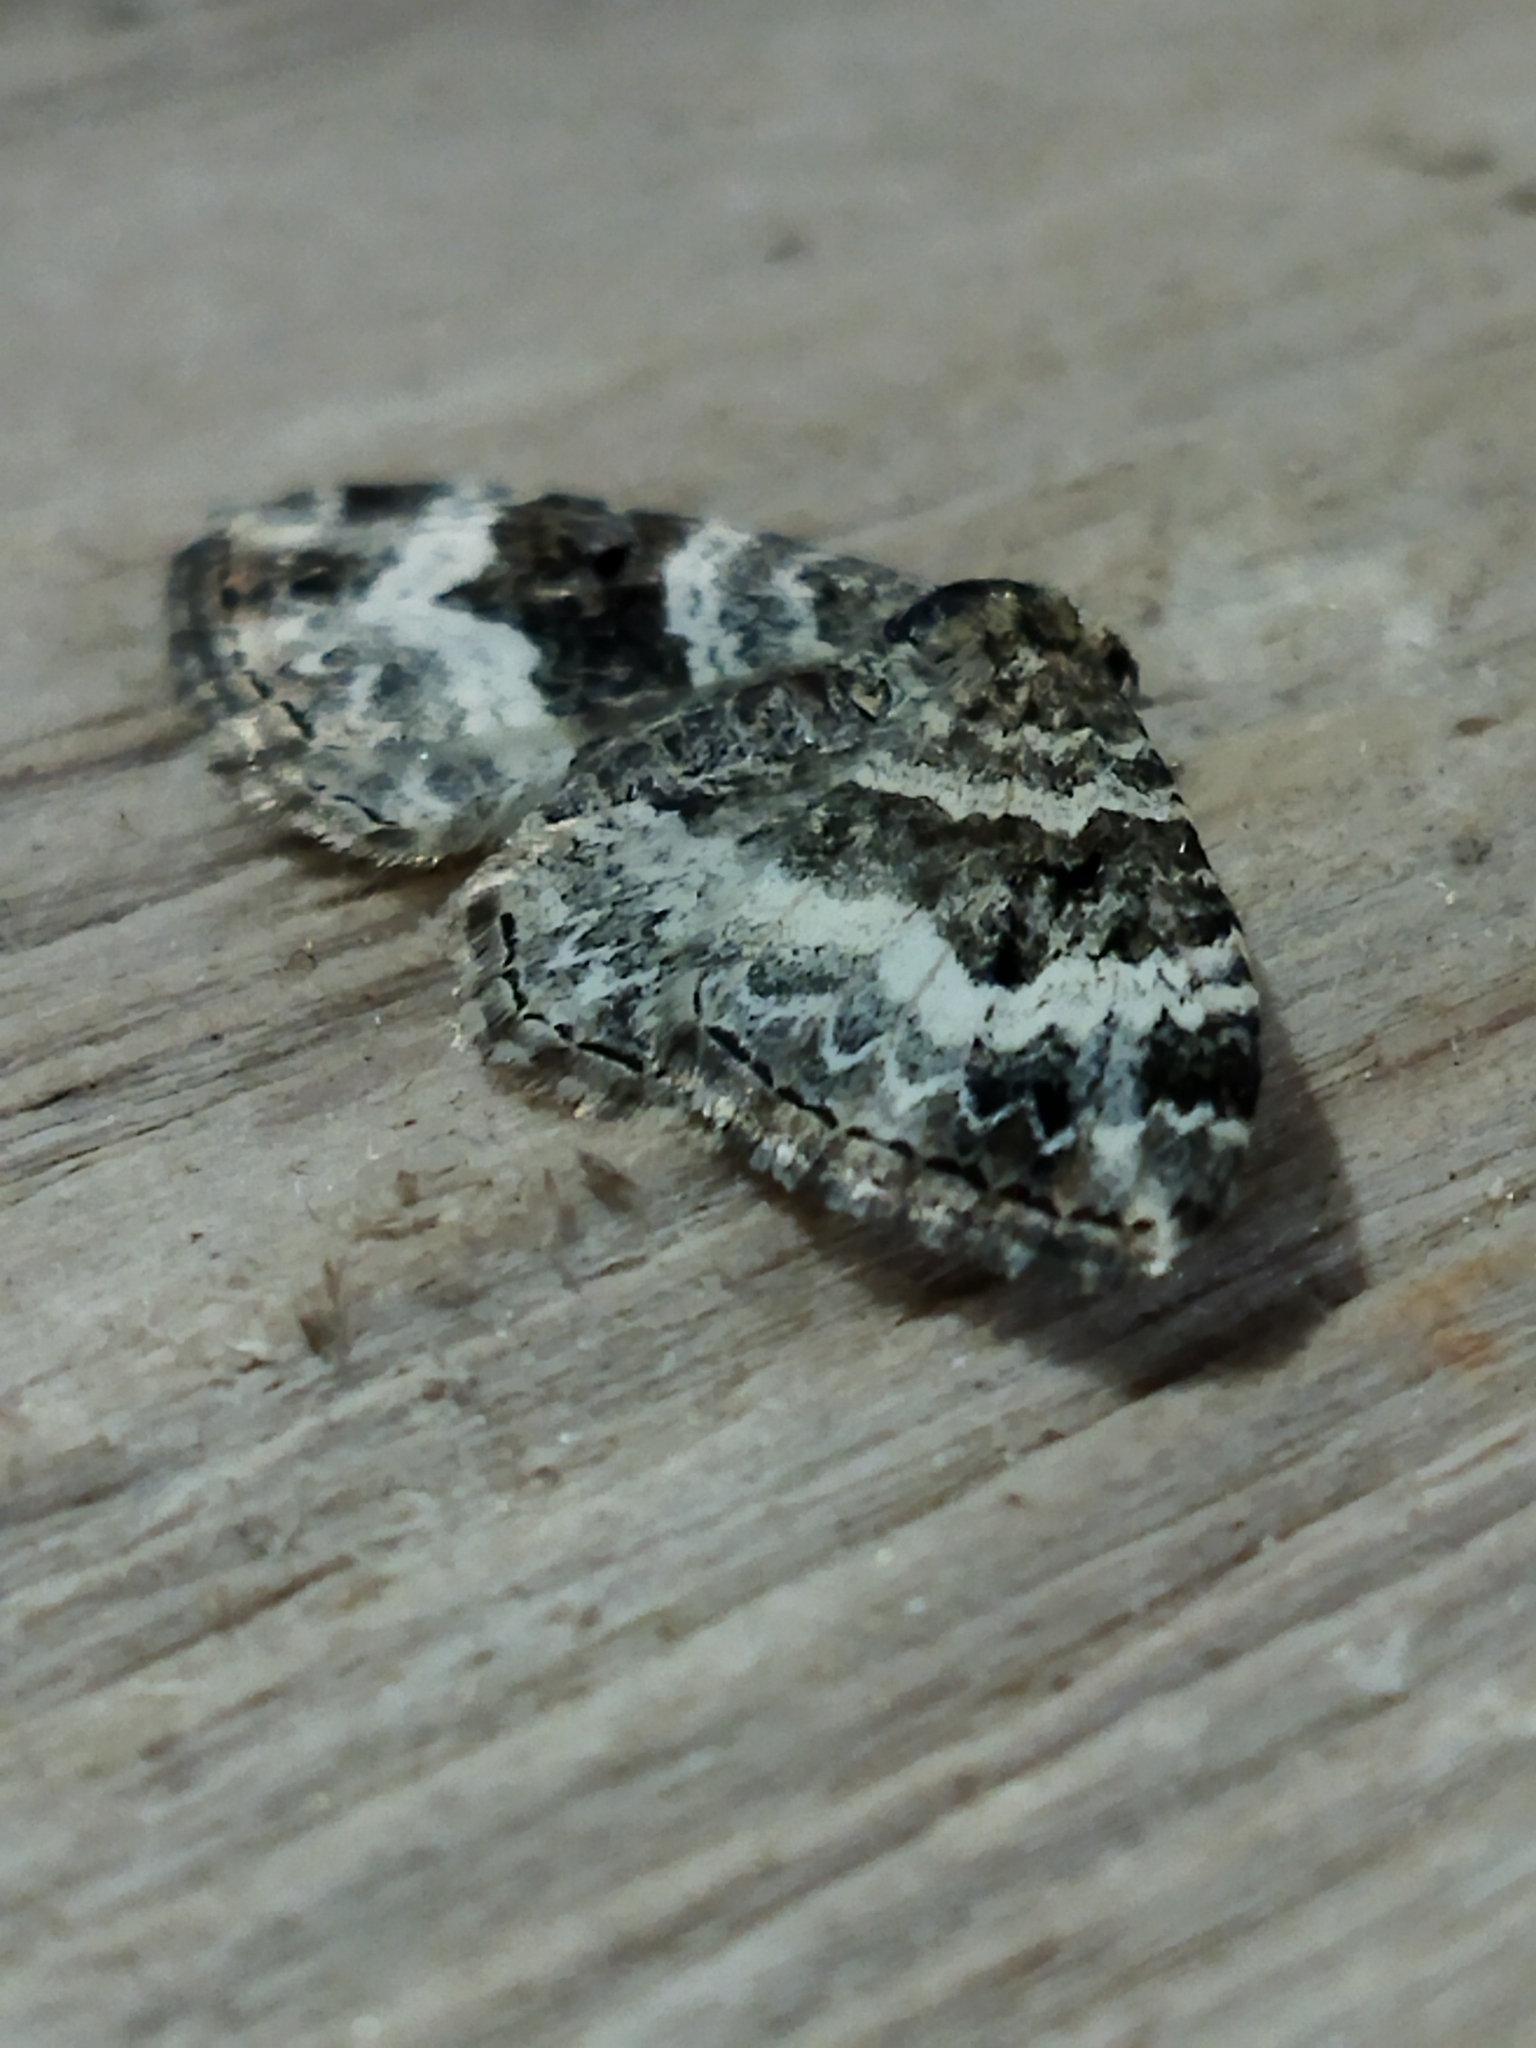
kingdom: Animalia
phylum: Arthropoda
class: Insecta
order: Lepidoptera
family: Geometridae
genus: Epirrhoe
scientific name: Epirrhoe alternata
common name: Common carpet
